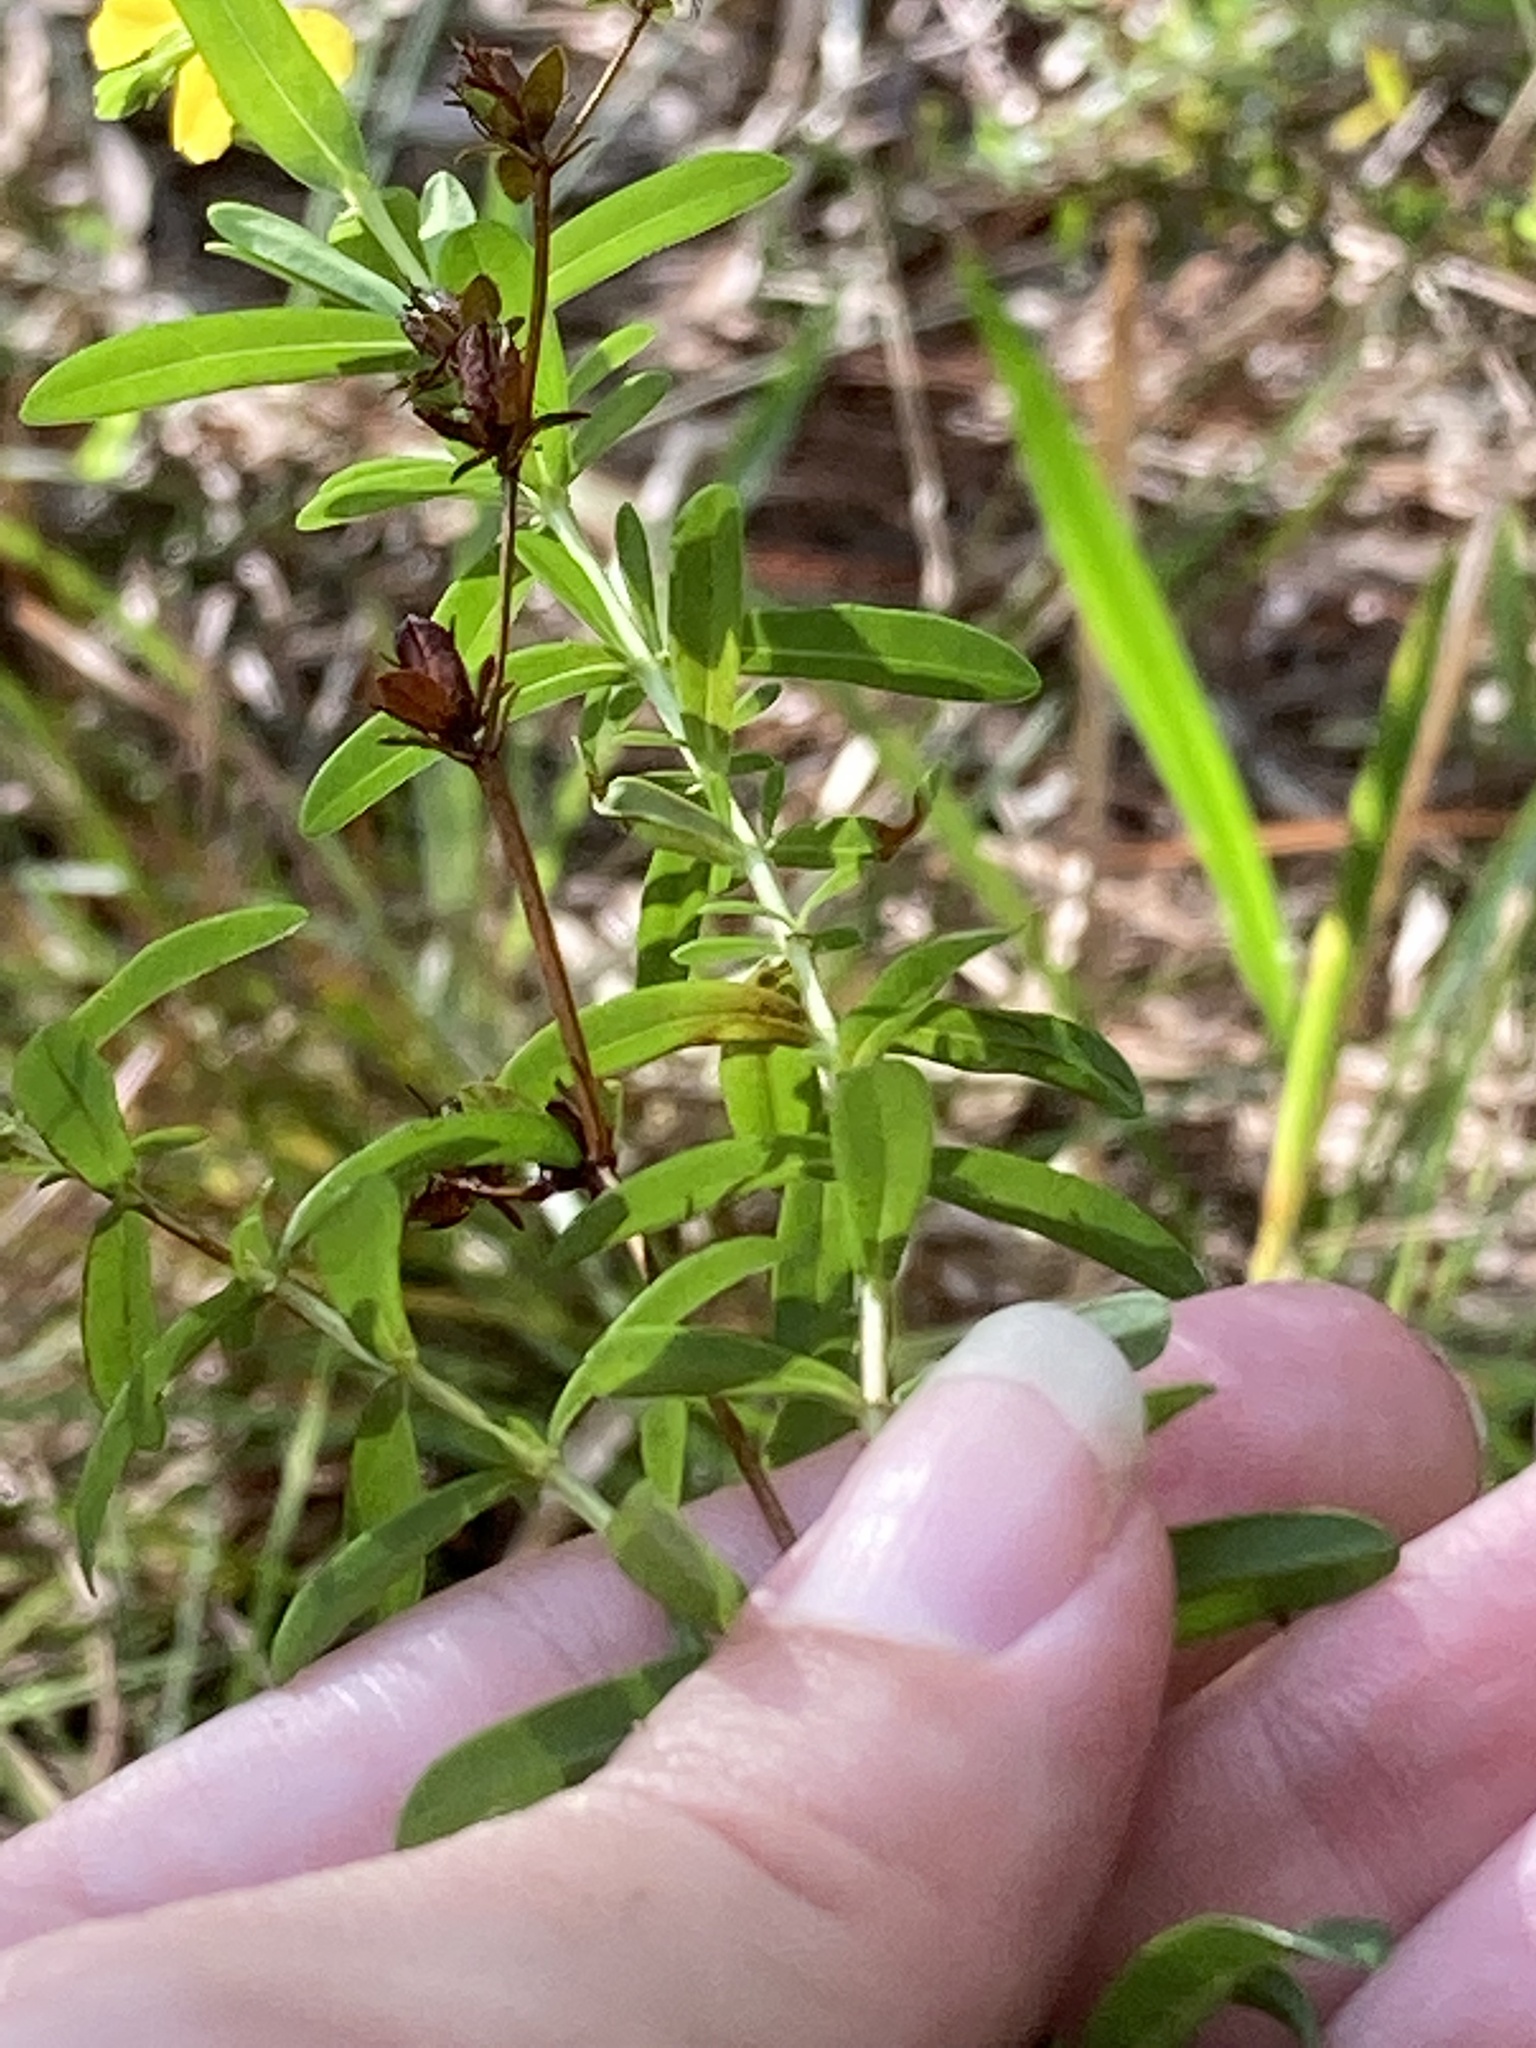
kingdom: Plantae
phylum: Tracheophyta
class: Magnoliopsida
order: Malpighiales
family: Hypericaceae
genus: Hypericum
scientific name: Hypericum cistifolium
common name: Round-pod st. john's-wort
